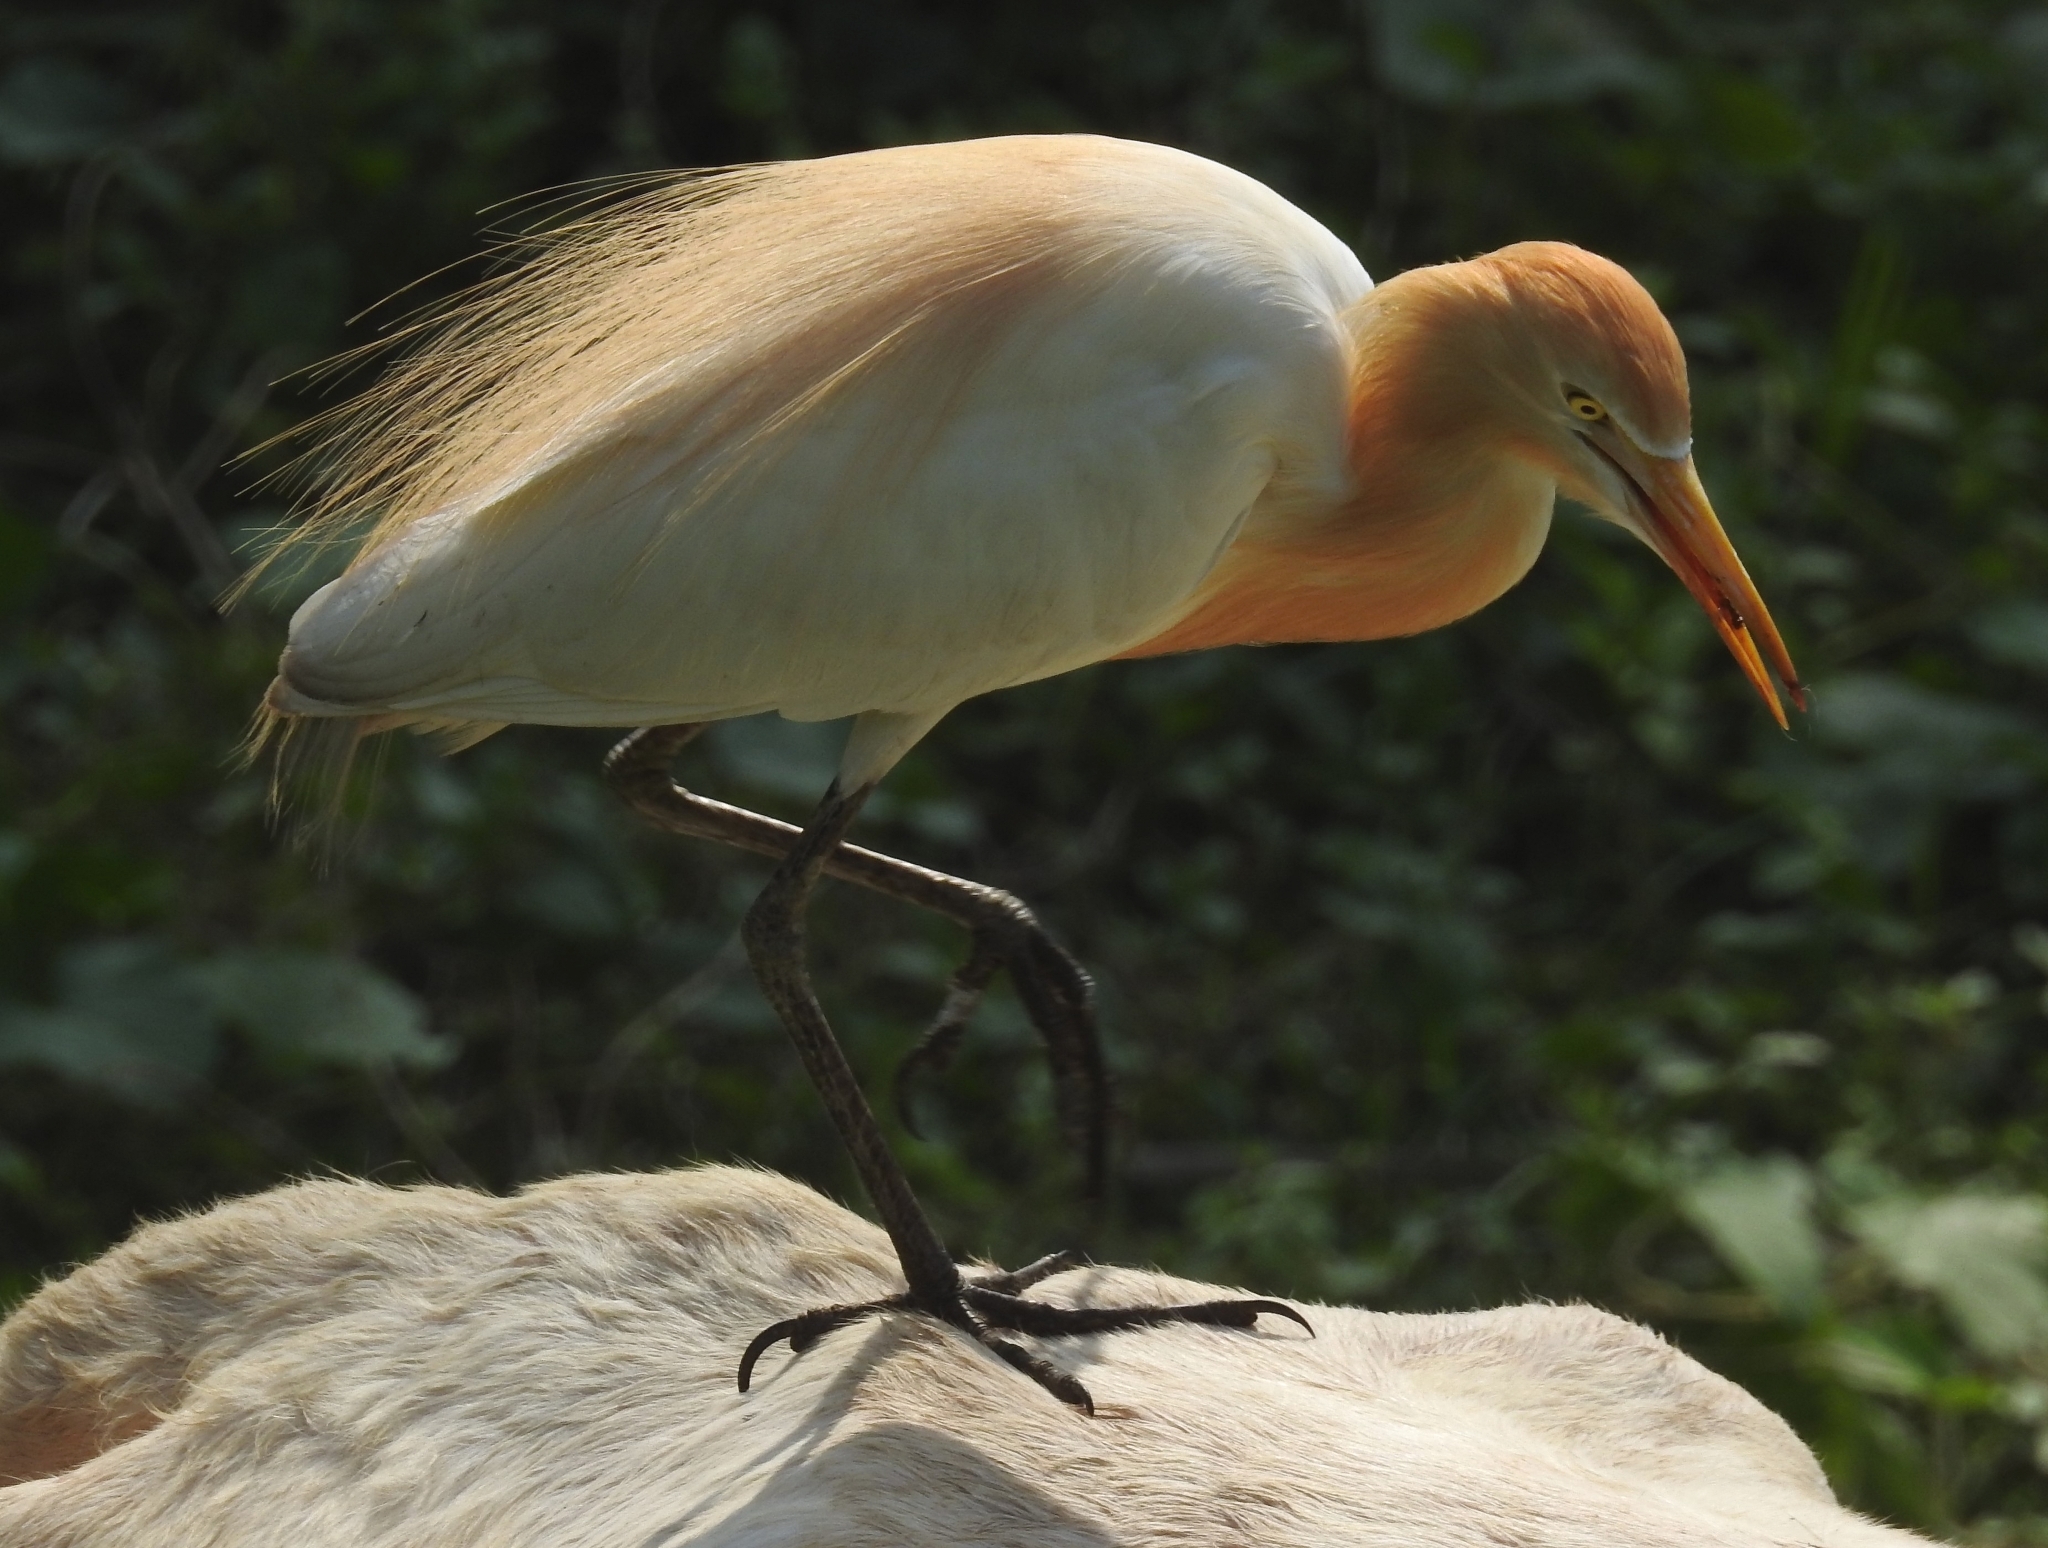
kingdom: Animalia
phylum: Chordata
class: Aves
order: Pelecaniformes
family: Ardeidae
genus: Bubulcus
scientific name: Bubulcus coromandus
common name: Eastern cattle egret
